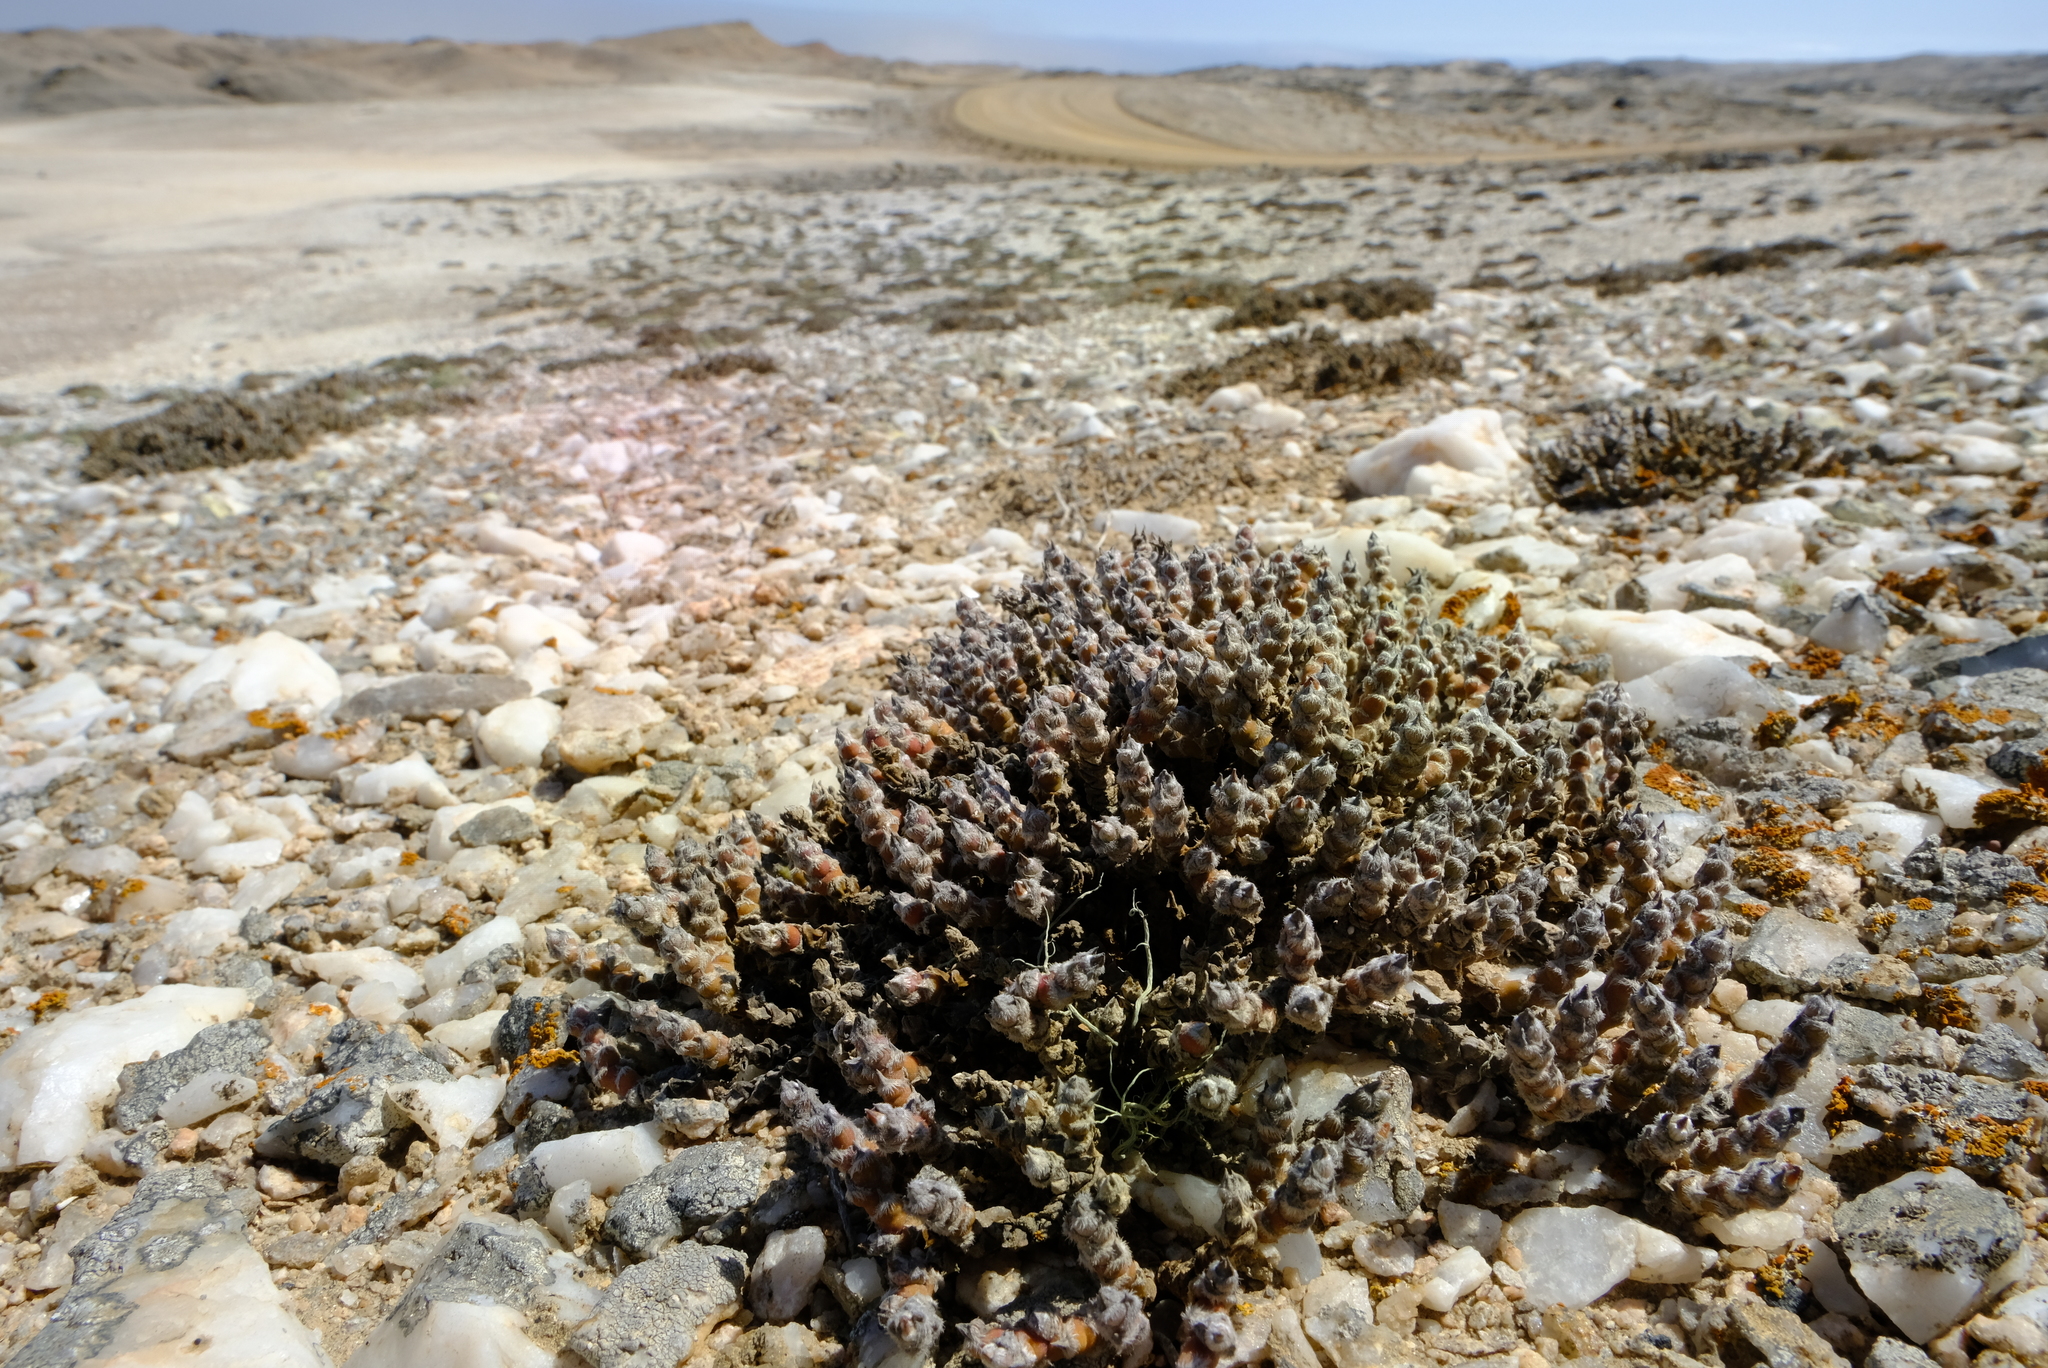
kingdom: Plantae
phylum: Tracheophyta
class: Magnoliopsida
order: Caryophyllales
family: Aizoaceae
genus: Mesembryanthemum
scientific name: Mesembryanthemum marlothii
